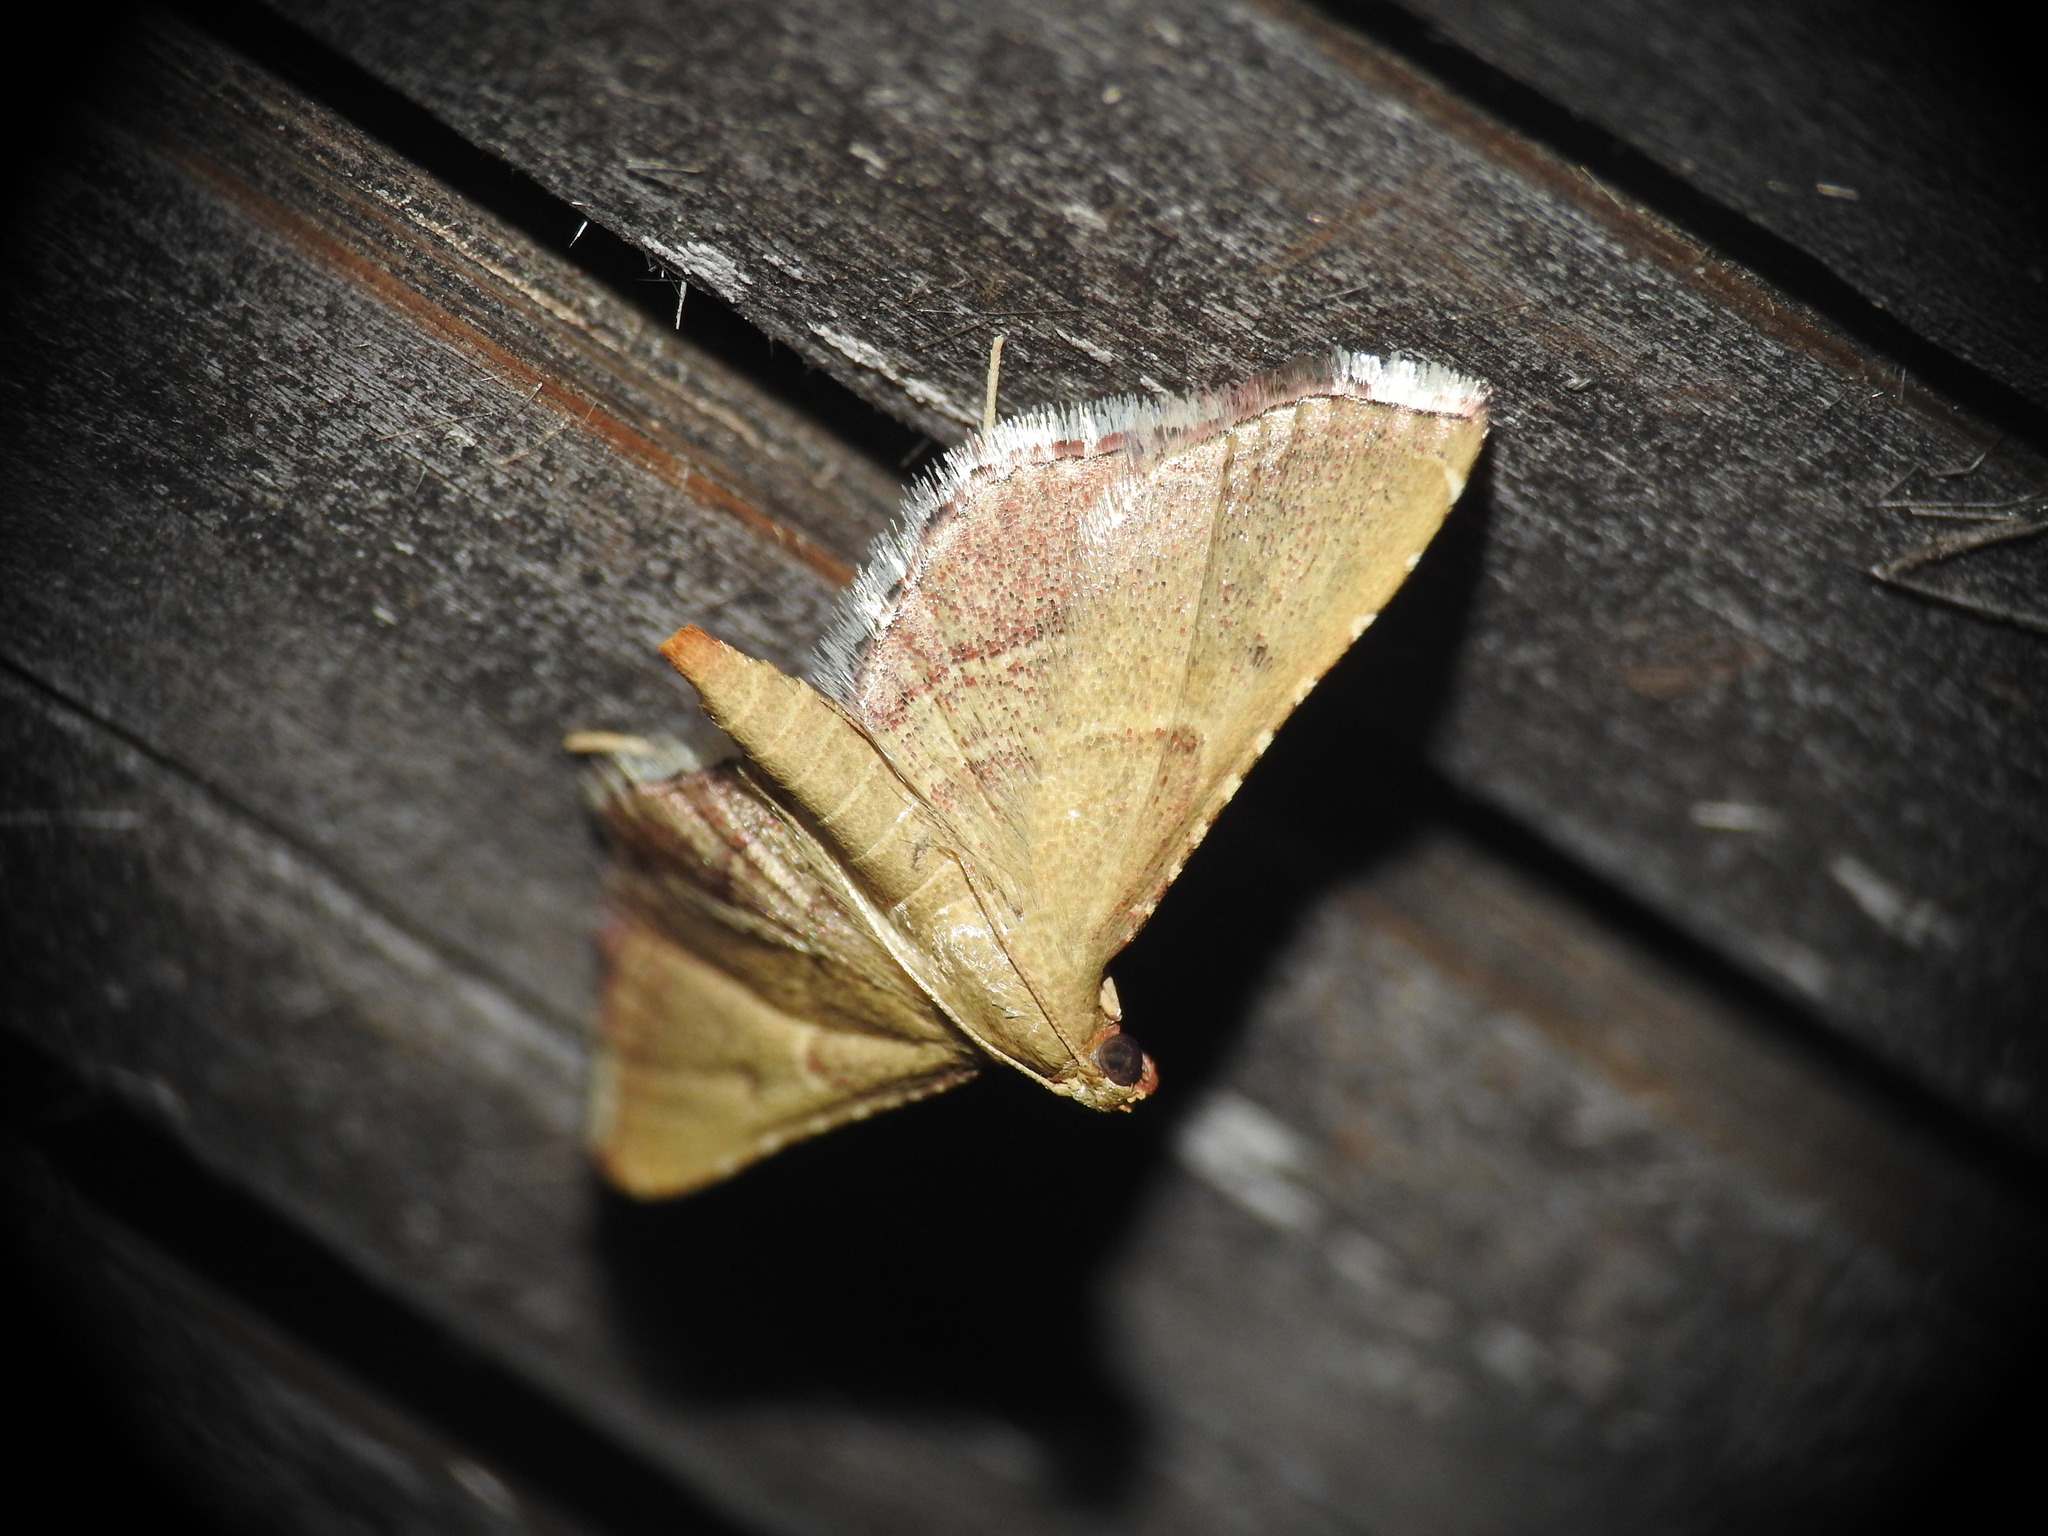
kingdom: Animalia
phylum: Arthropoda
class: Insecta
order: Lepidoptera
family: Pyralidae
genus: Endotricha
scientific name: Endotricha flammealis
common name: Rosy tabby
